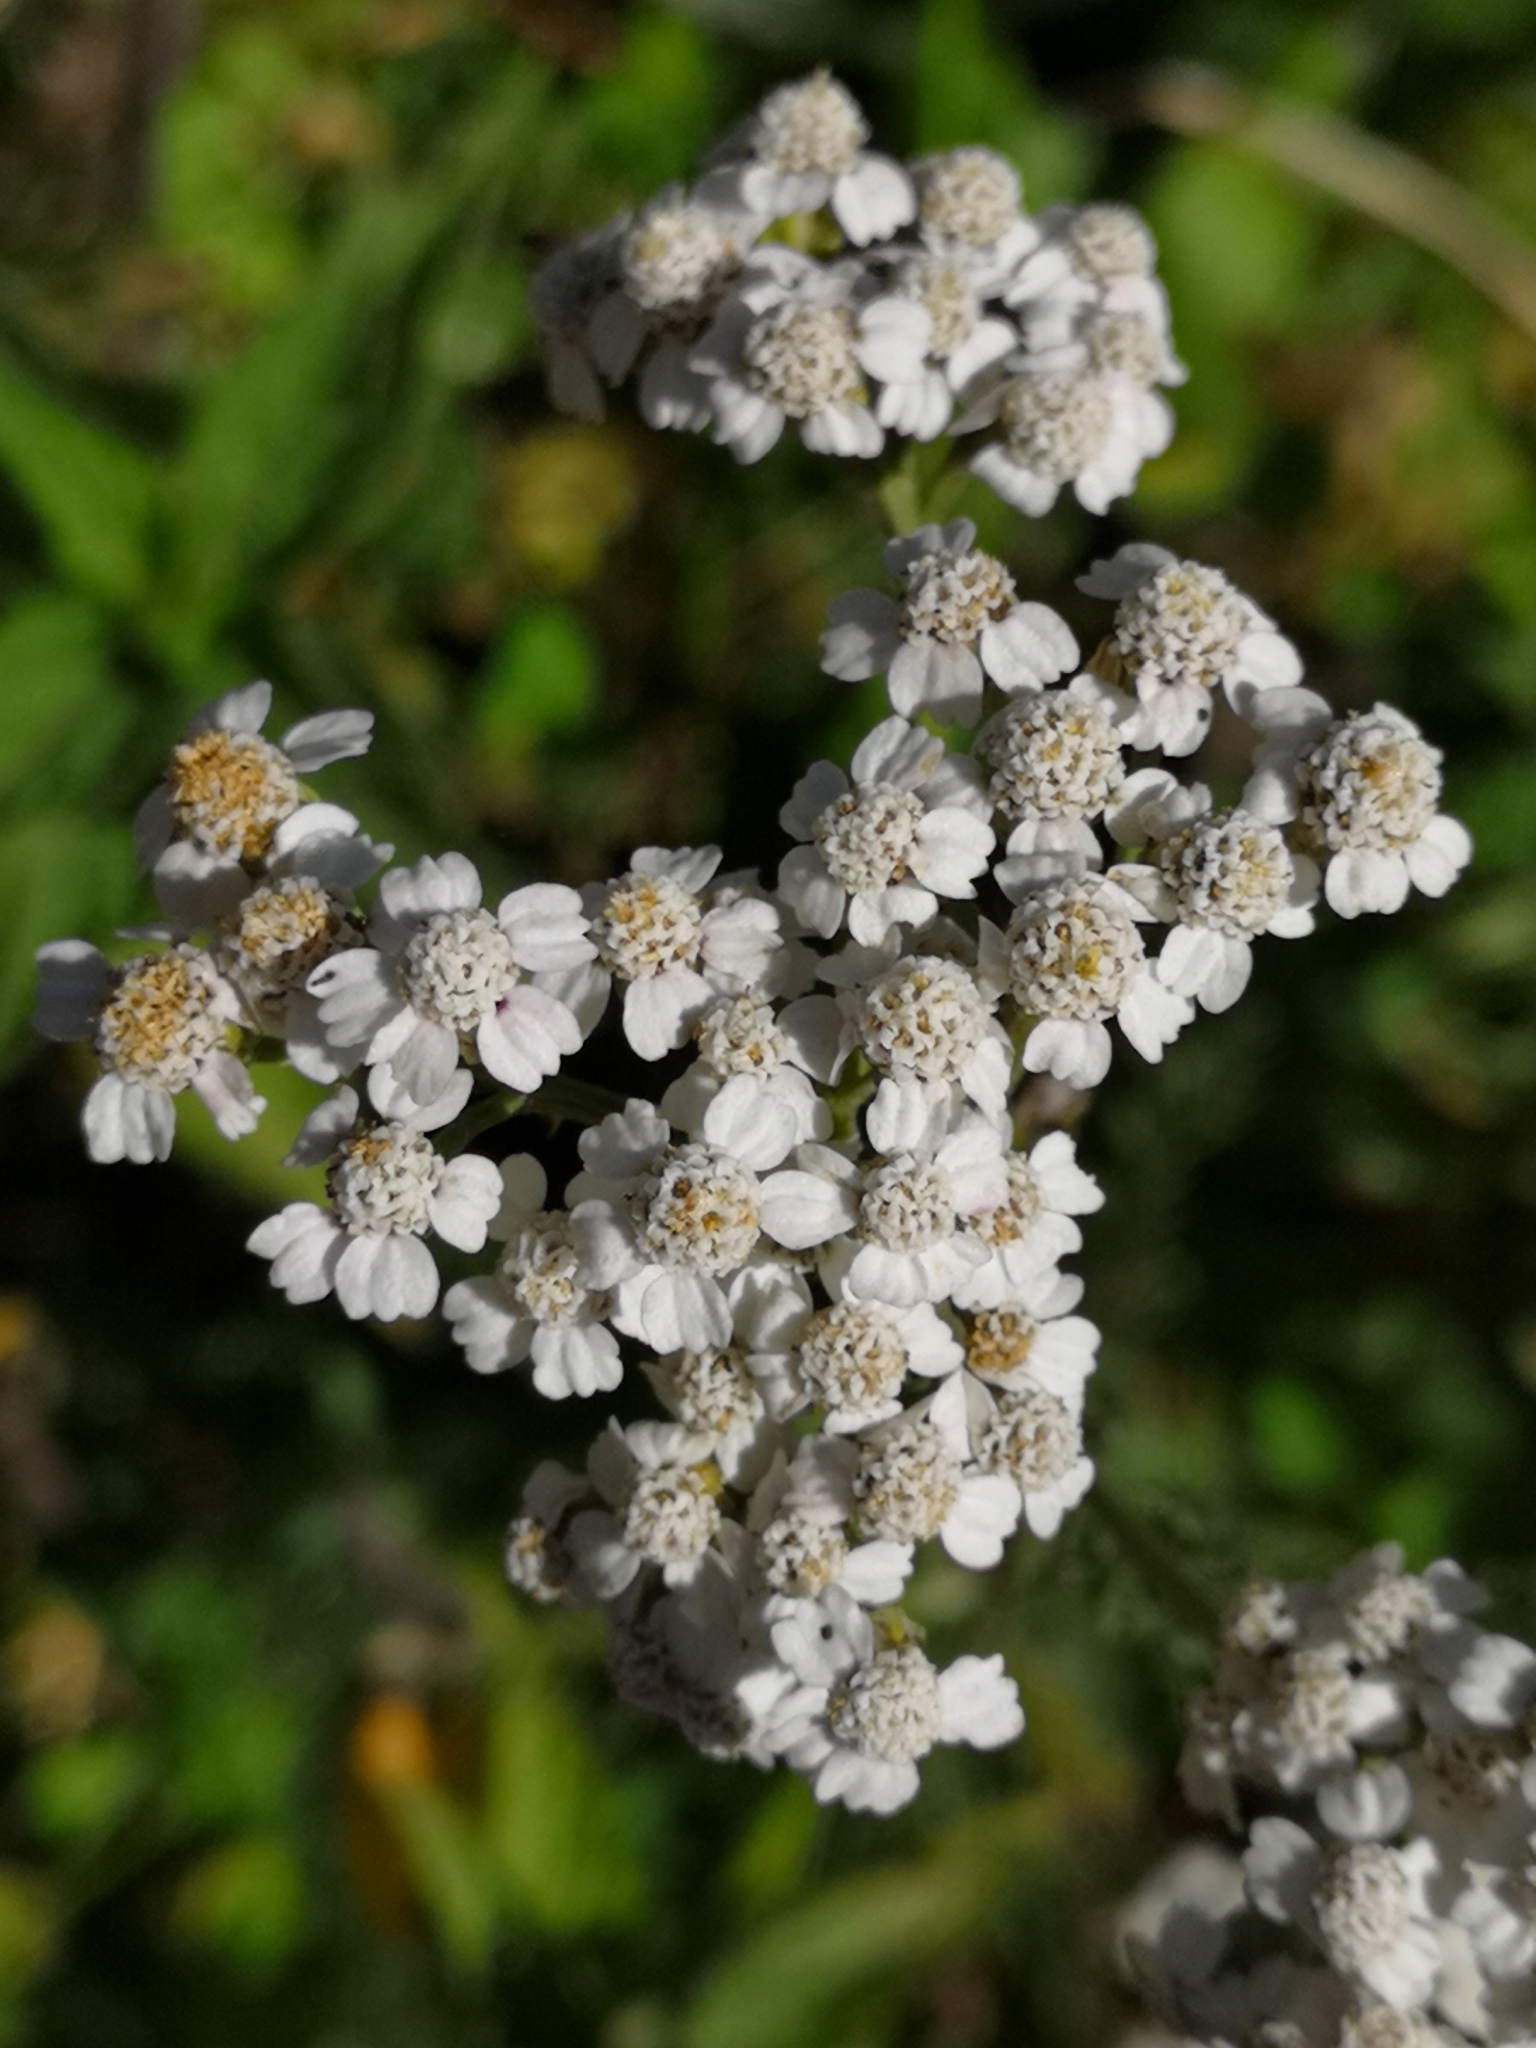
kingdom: Plantae
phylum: Tracheophyta
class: Magnoliopsida
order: Asterales
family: Asteraceae
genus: Achillea
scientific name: Achillea millefolium
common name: Yarrow
